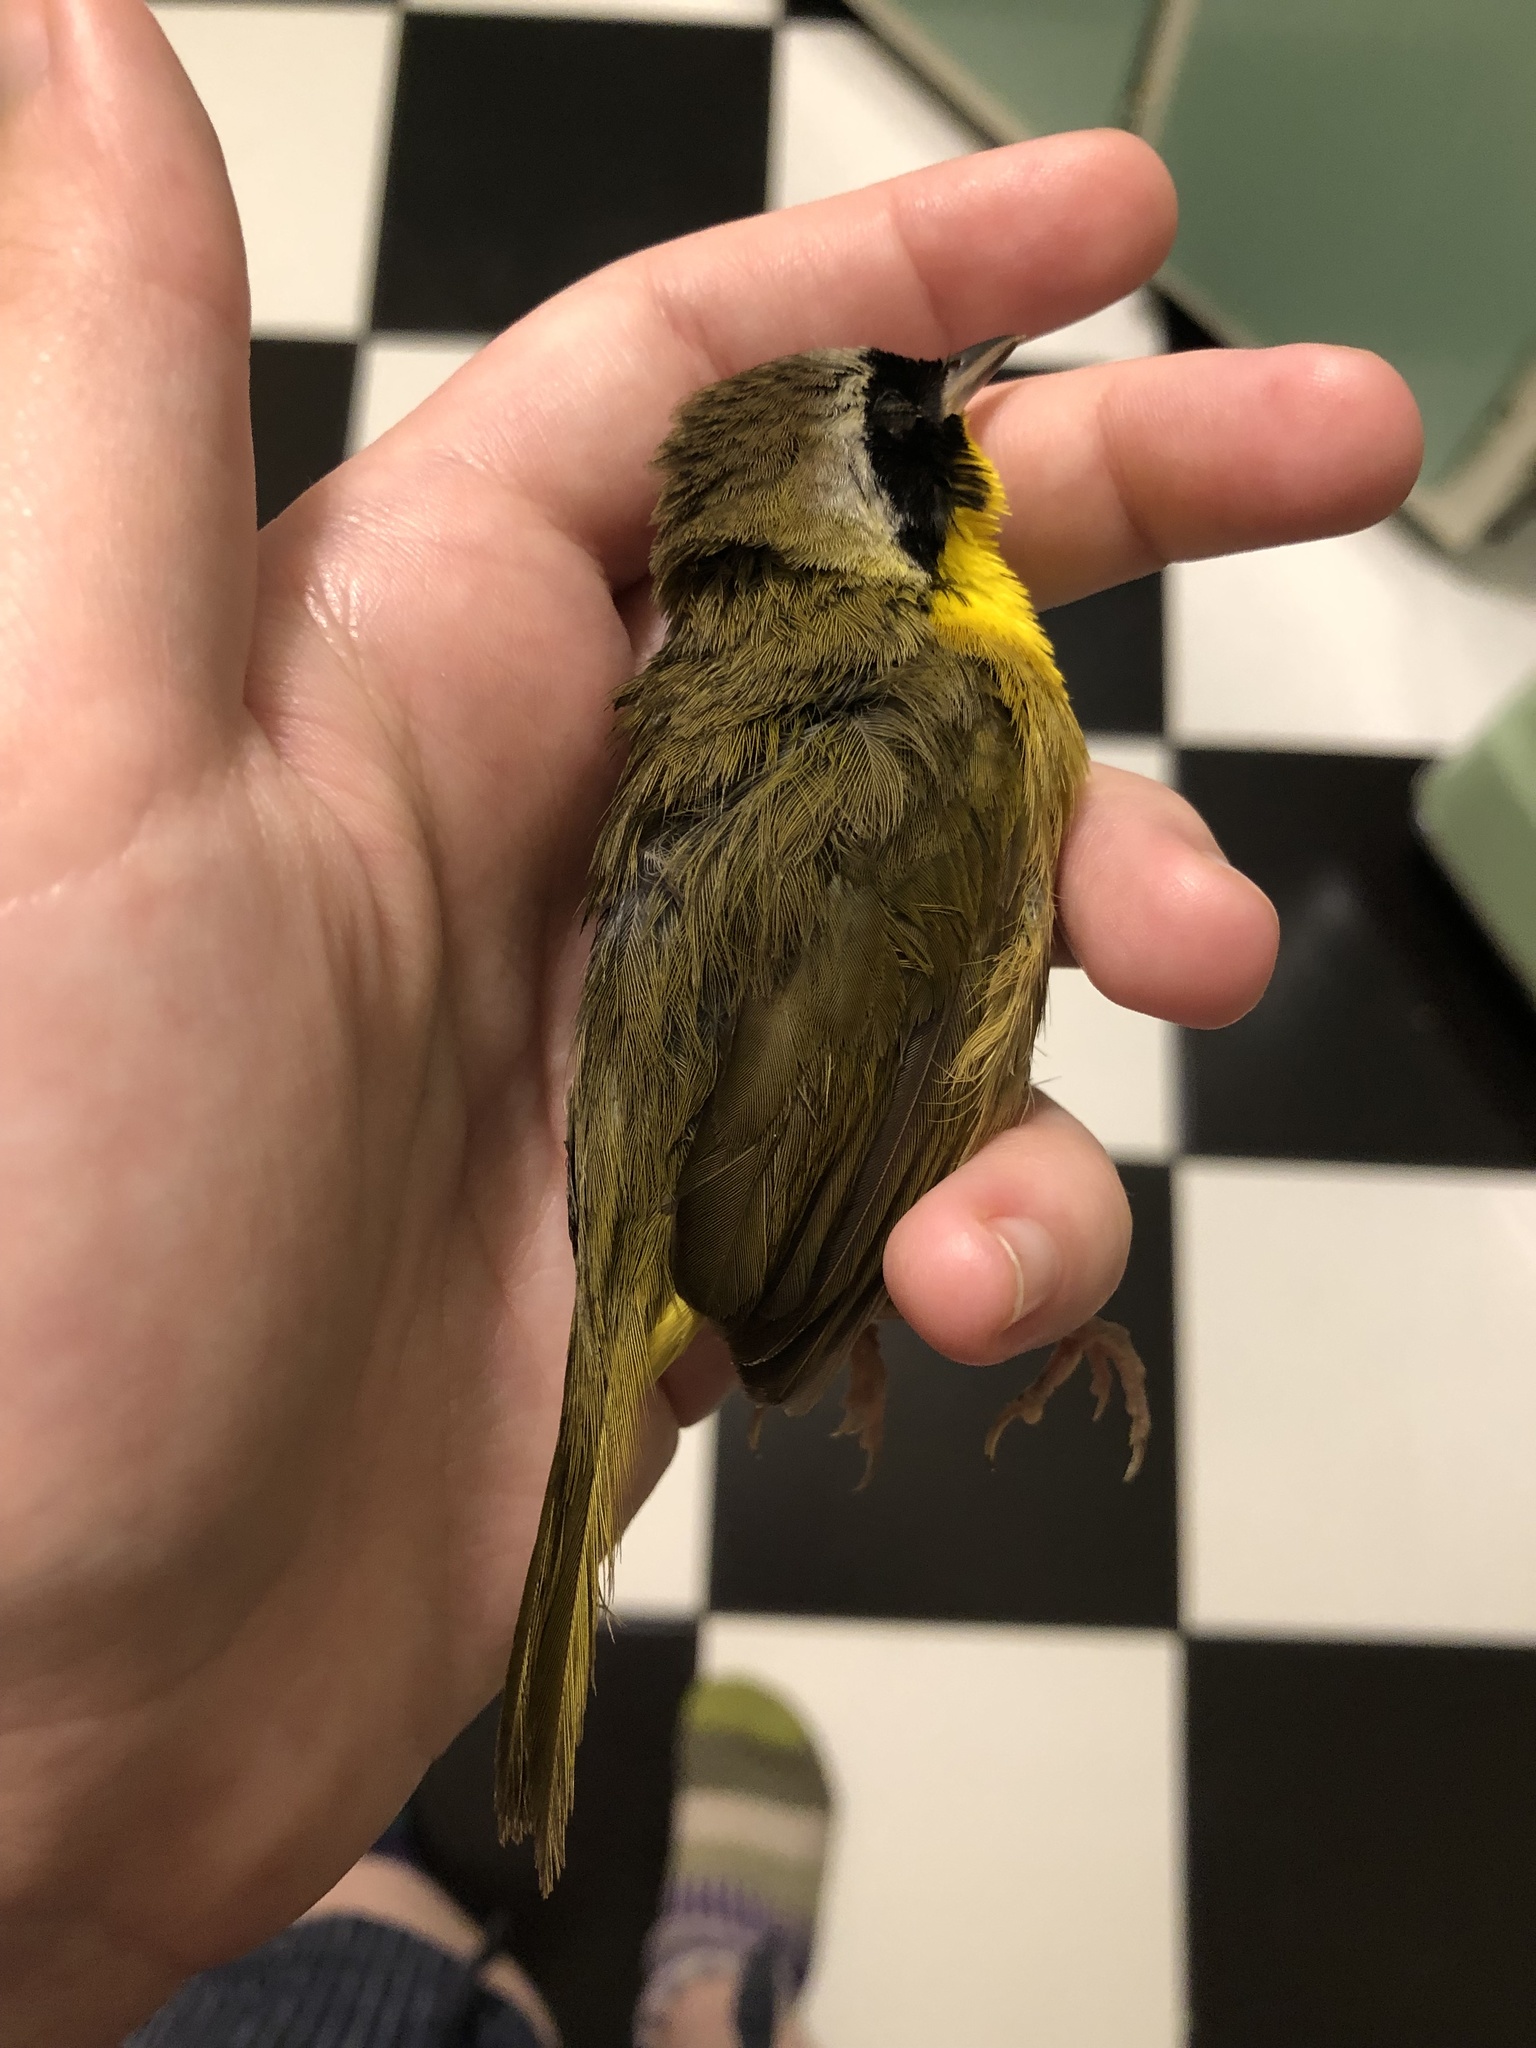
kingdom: Animalia
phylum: Chordata
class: Aves
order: Passeriformes
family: Parulidae
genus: Geothlypis
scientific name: Geothlypis trichas
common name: Common yellowthroat
